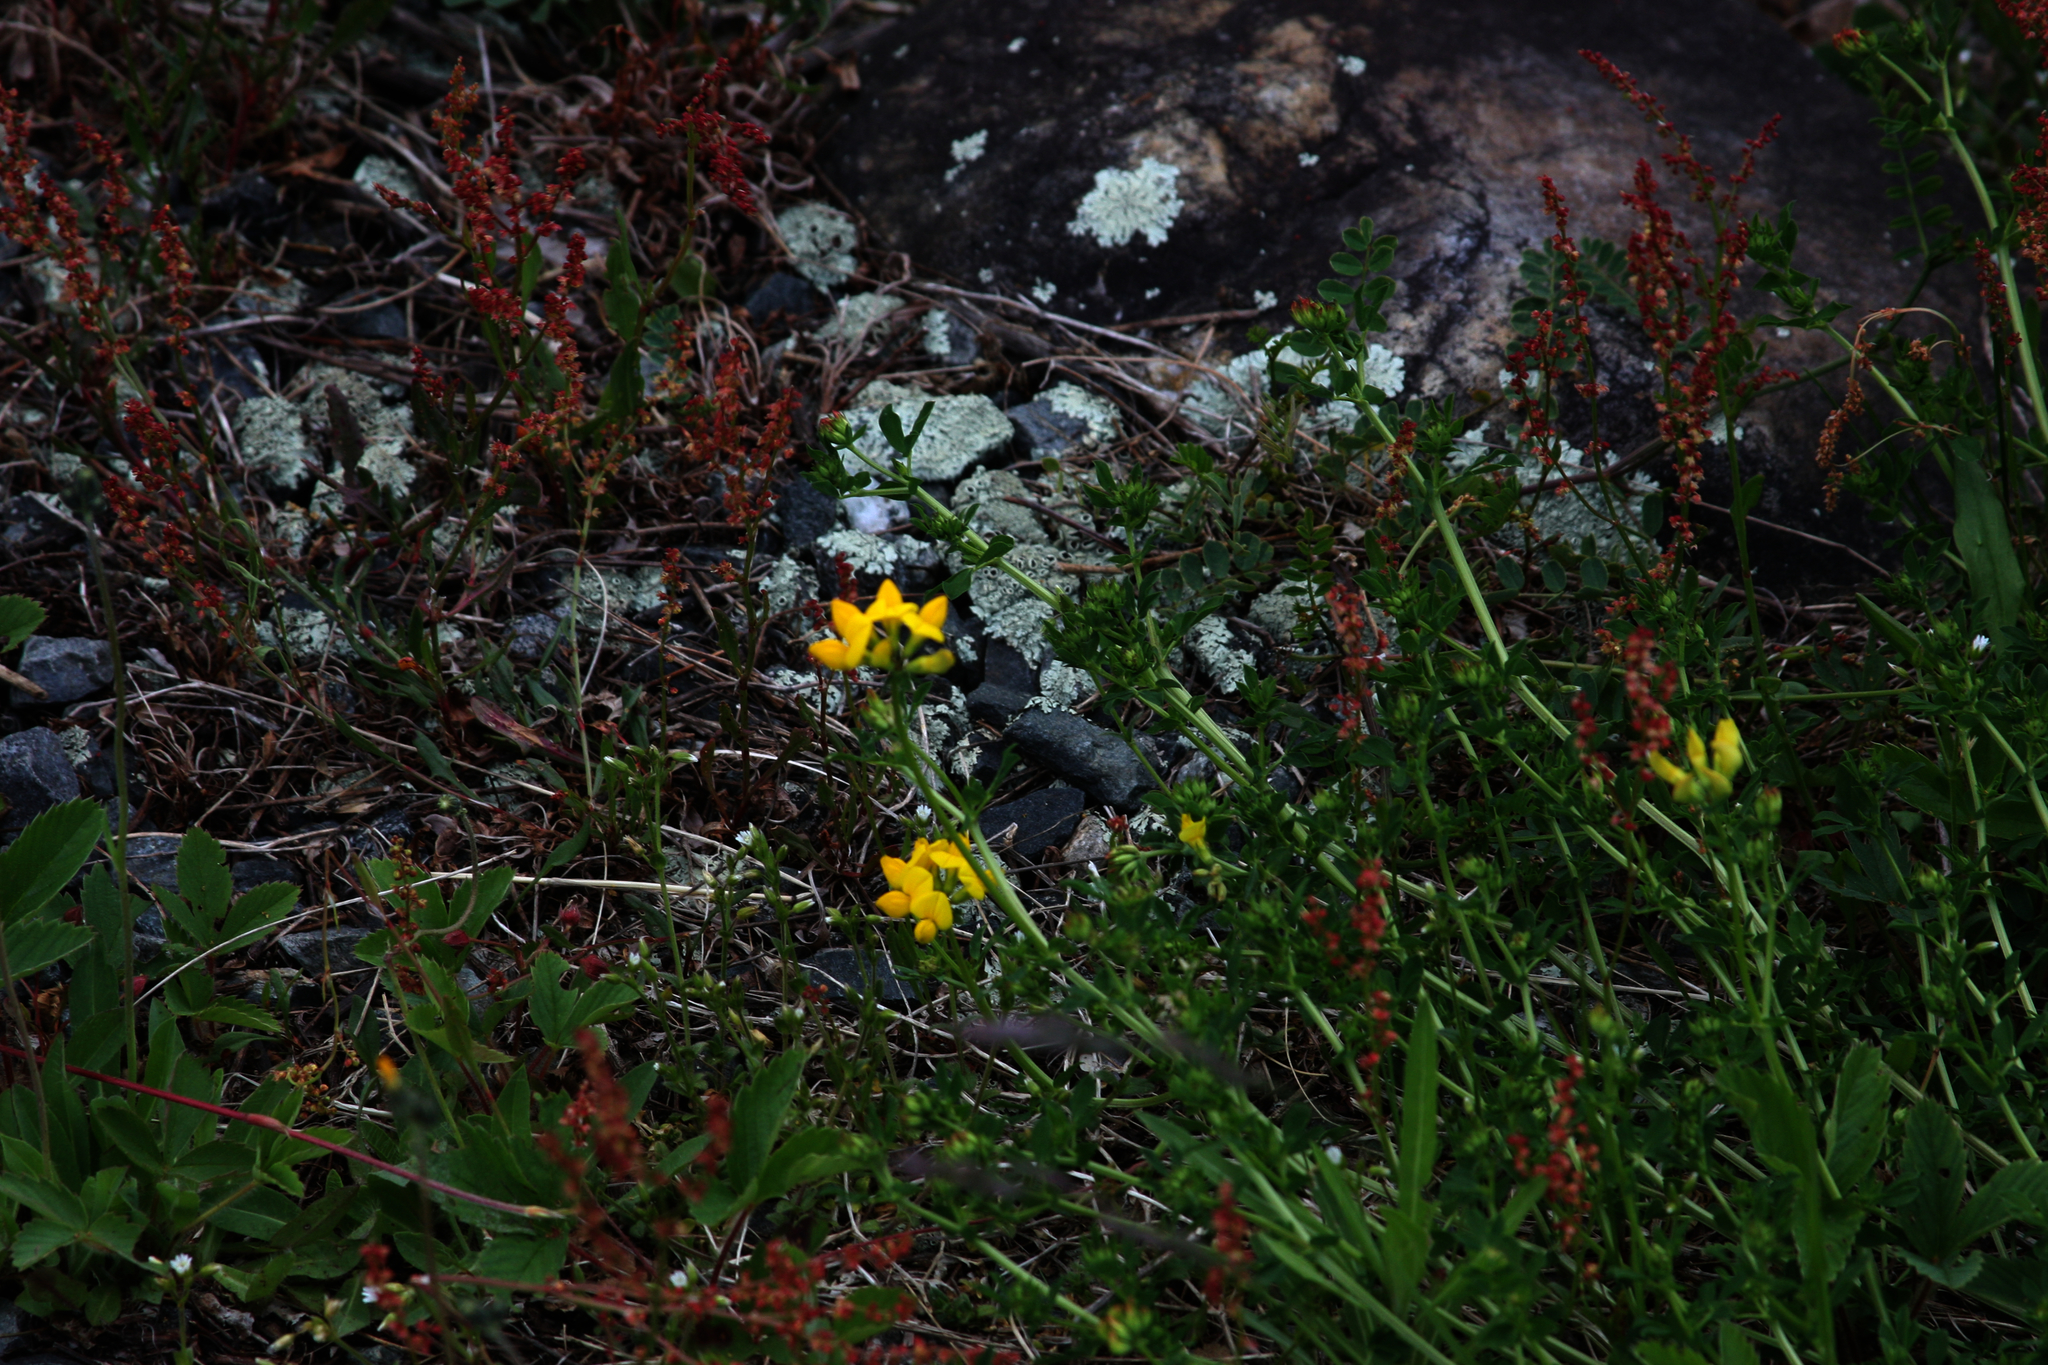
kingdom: Plantae
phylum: Tracheophyta
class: Magnoliopsida
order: Fabales
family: Fabaceae
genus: Lotus
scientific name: Lotus corniculatus
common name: Common bird's-foot-trefoil
